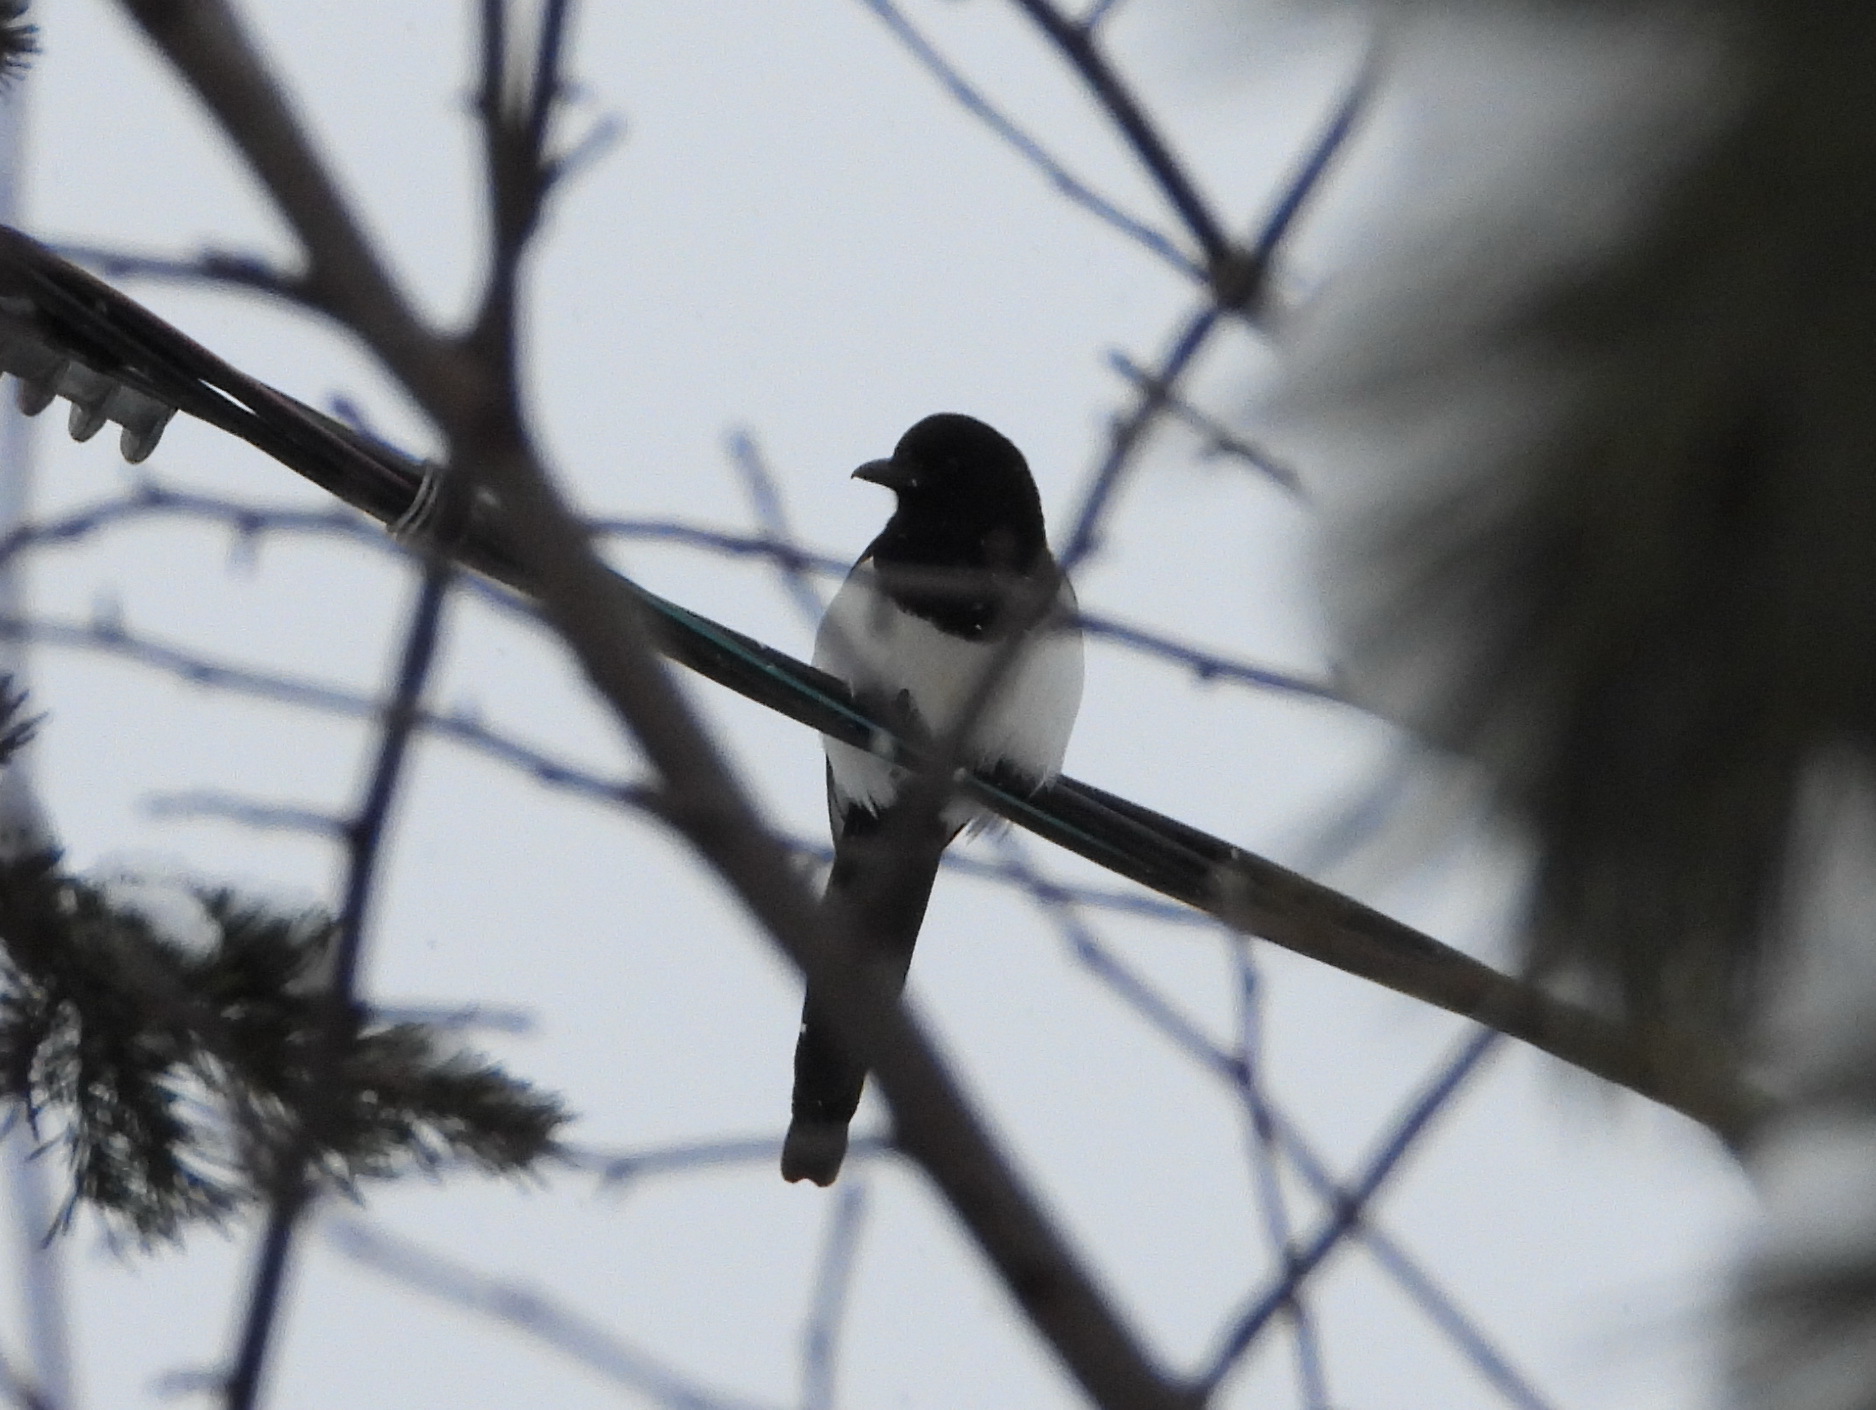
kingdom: Animalia
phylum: Chordata
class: Aves
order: Passeriformes
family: Corvidae
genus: Pica
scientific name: Pica pica
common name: Eurasian magpie
